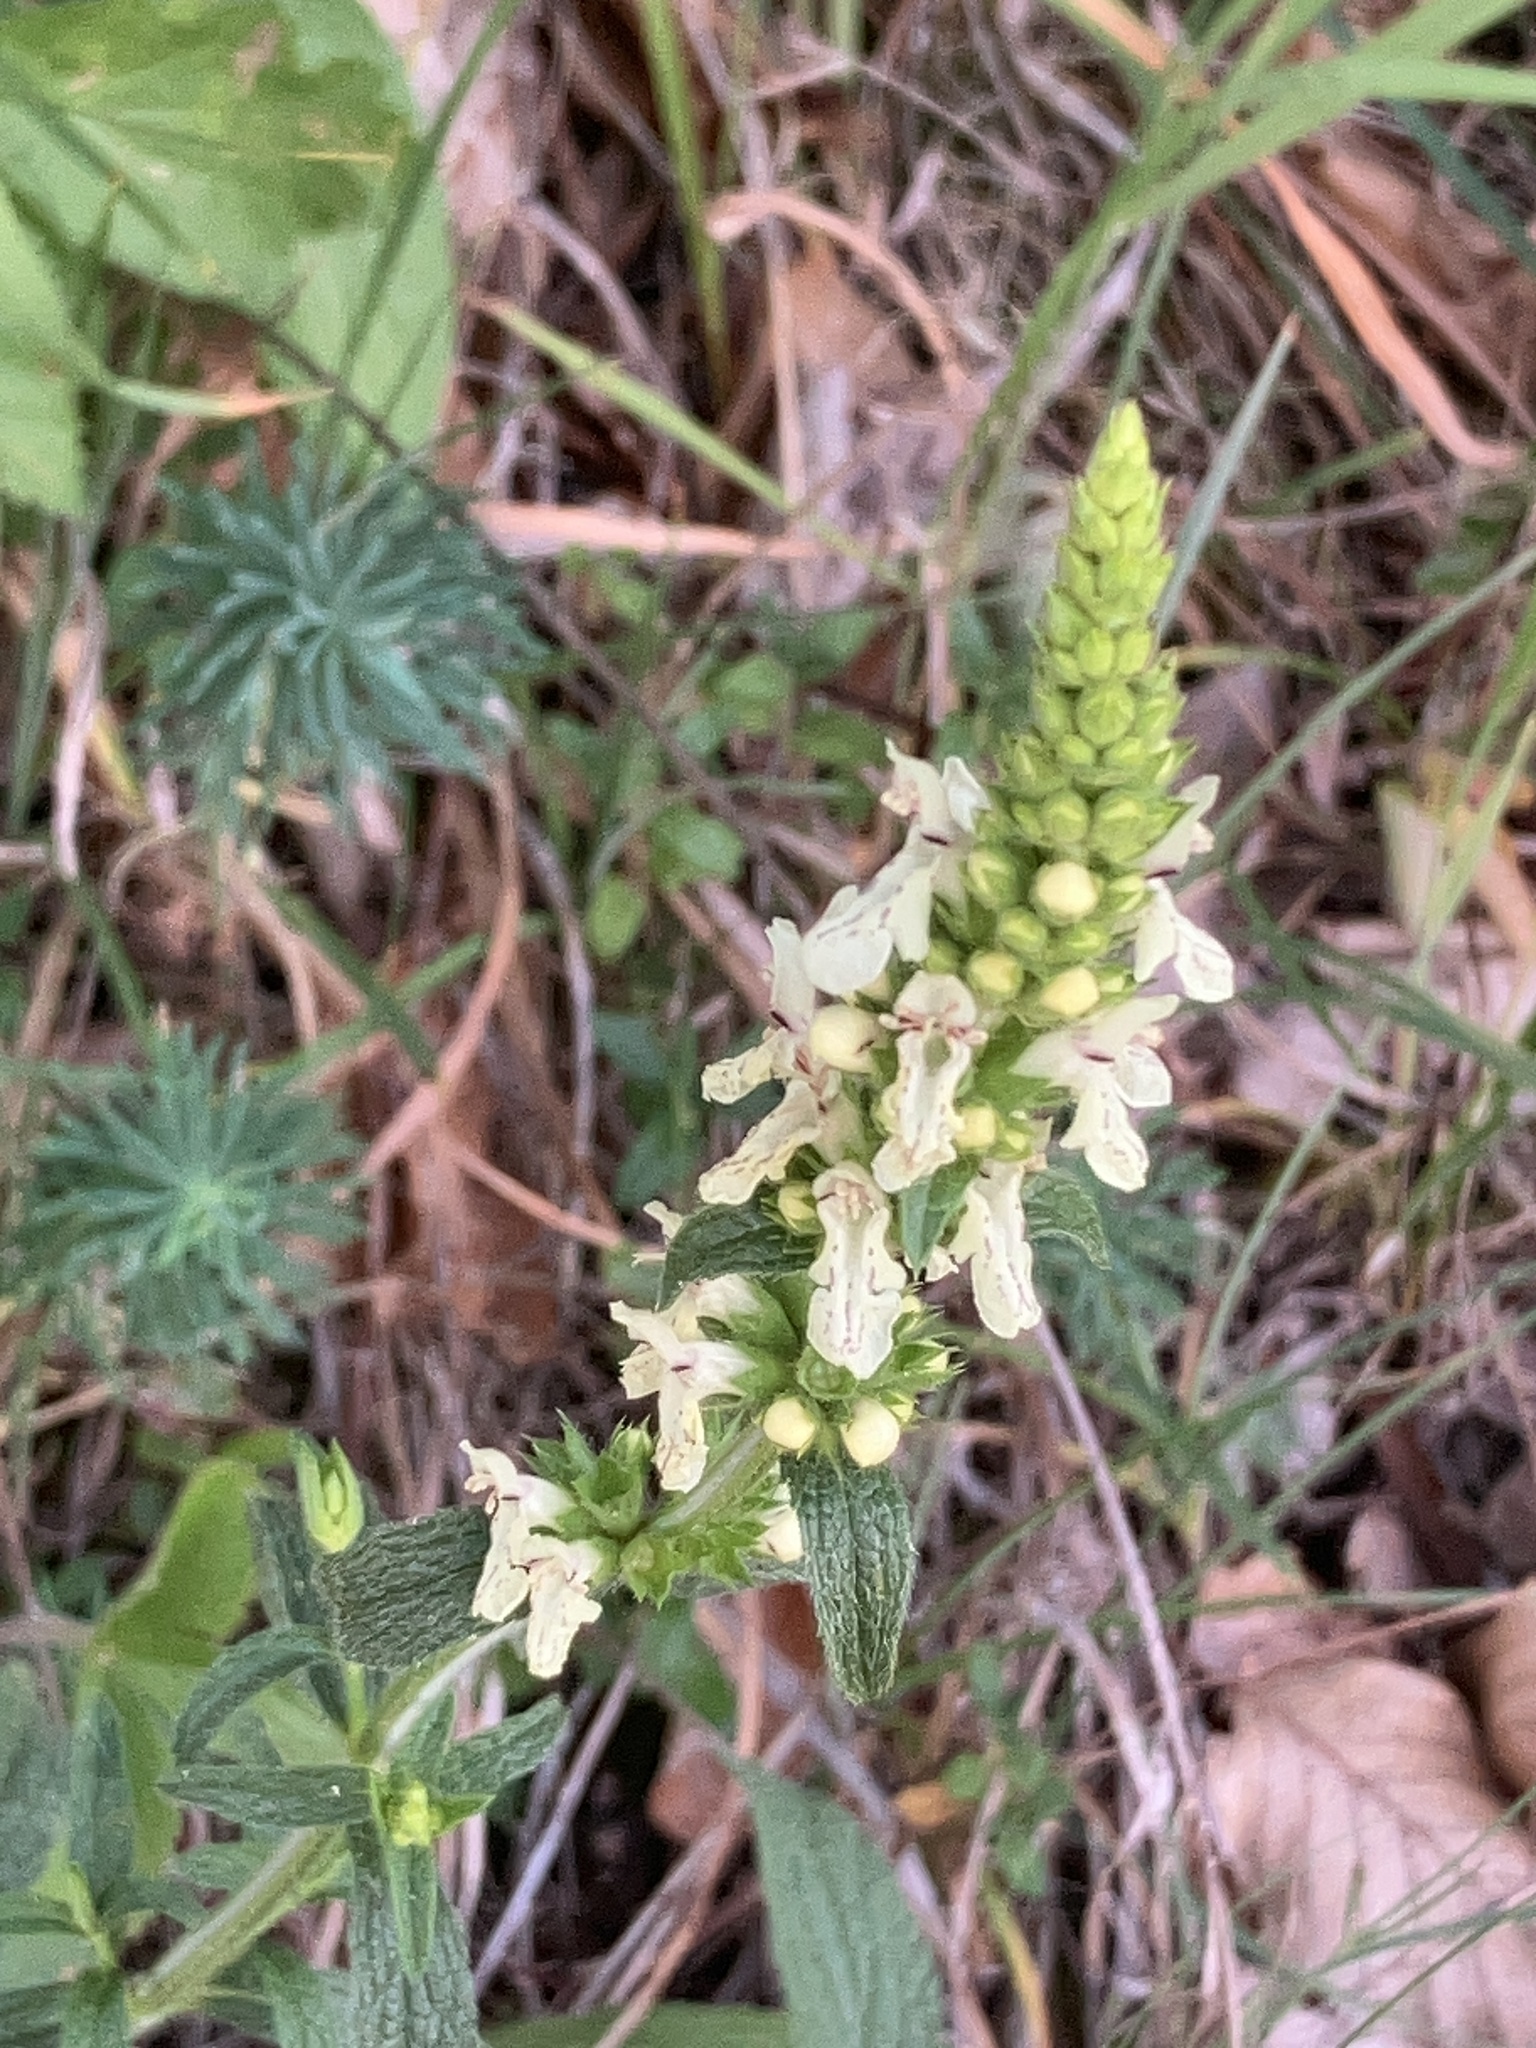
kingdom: Plantae
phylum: Tracheophyta
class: Magnoliopsida
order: Lamiales
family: Lamiaceae
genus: Stachys
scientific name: Stachys recta
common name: Perennial yellow-woundwort
